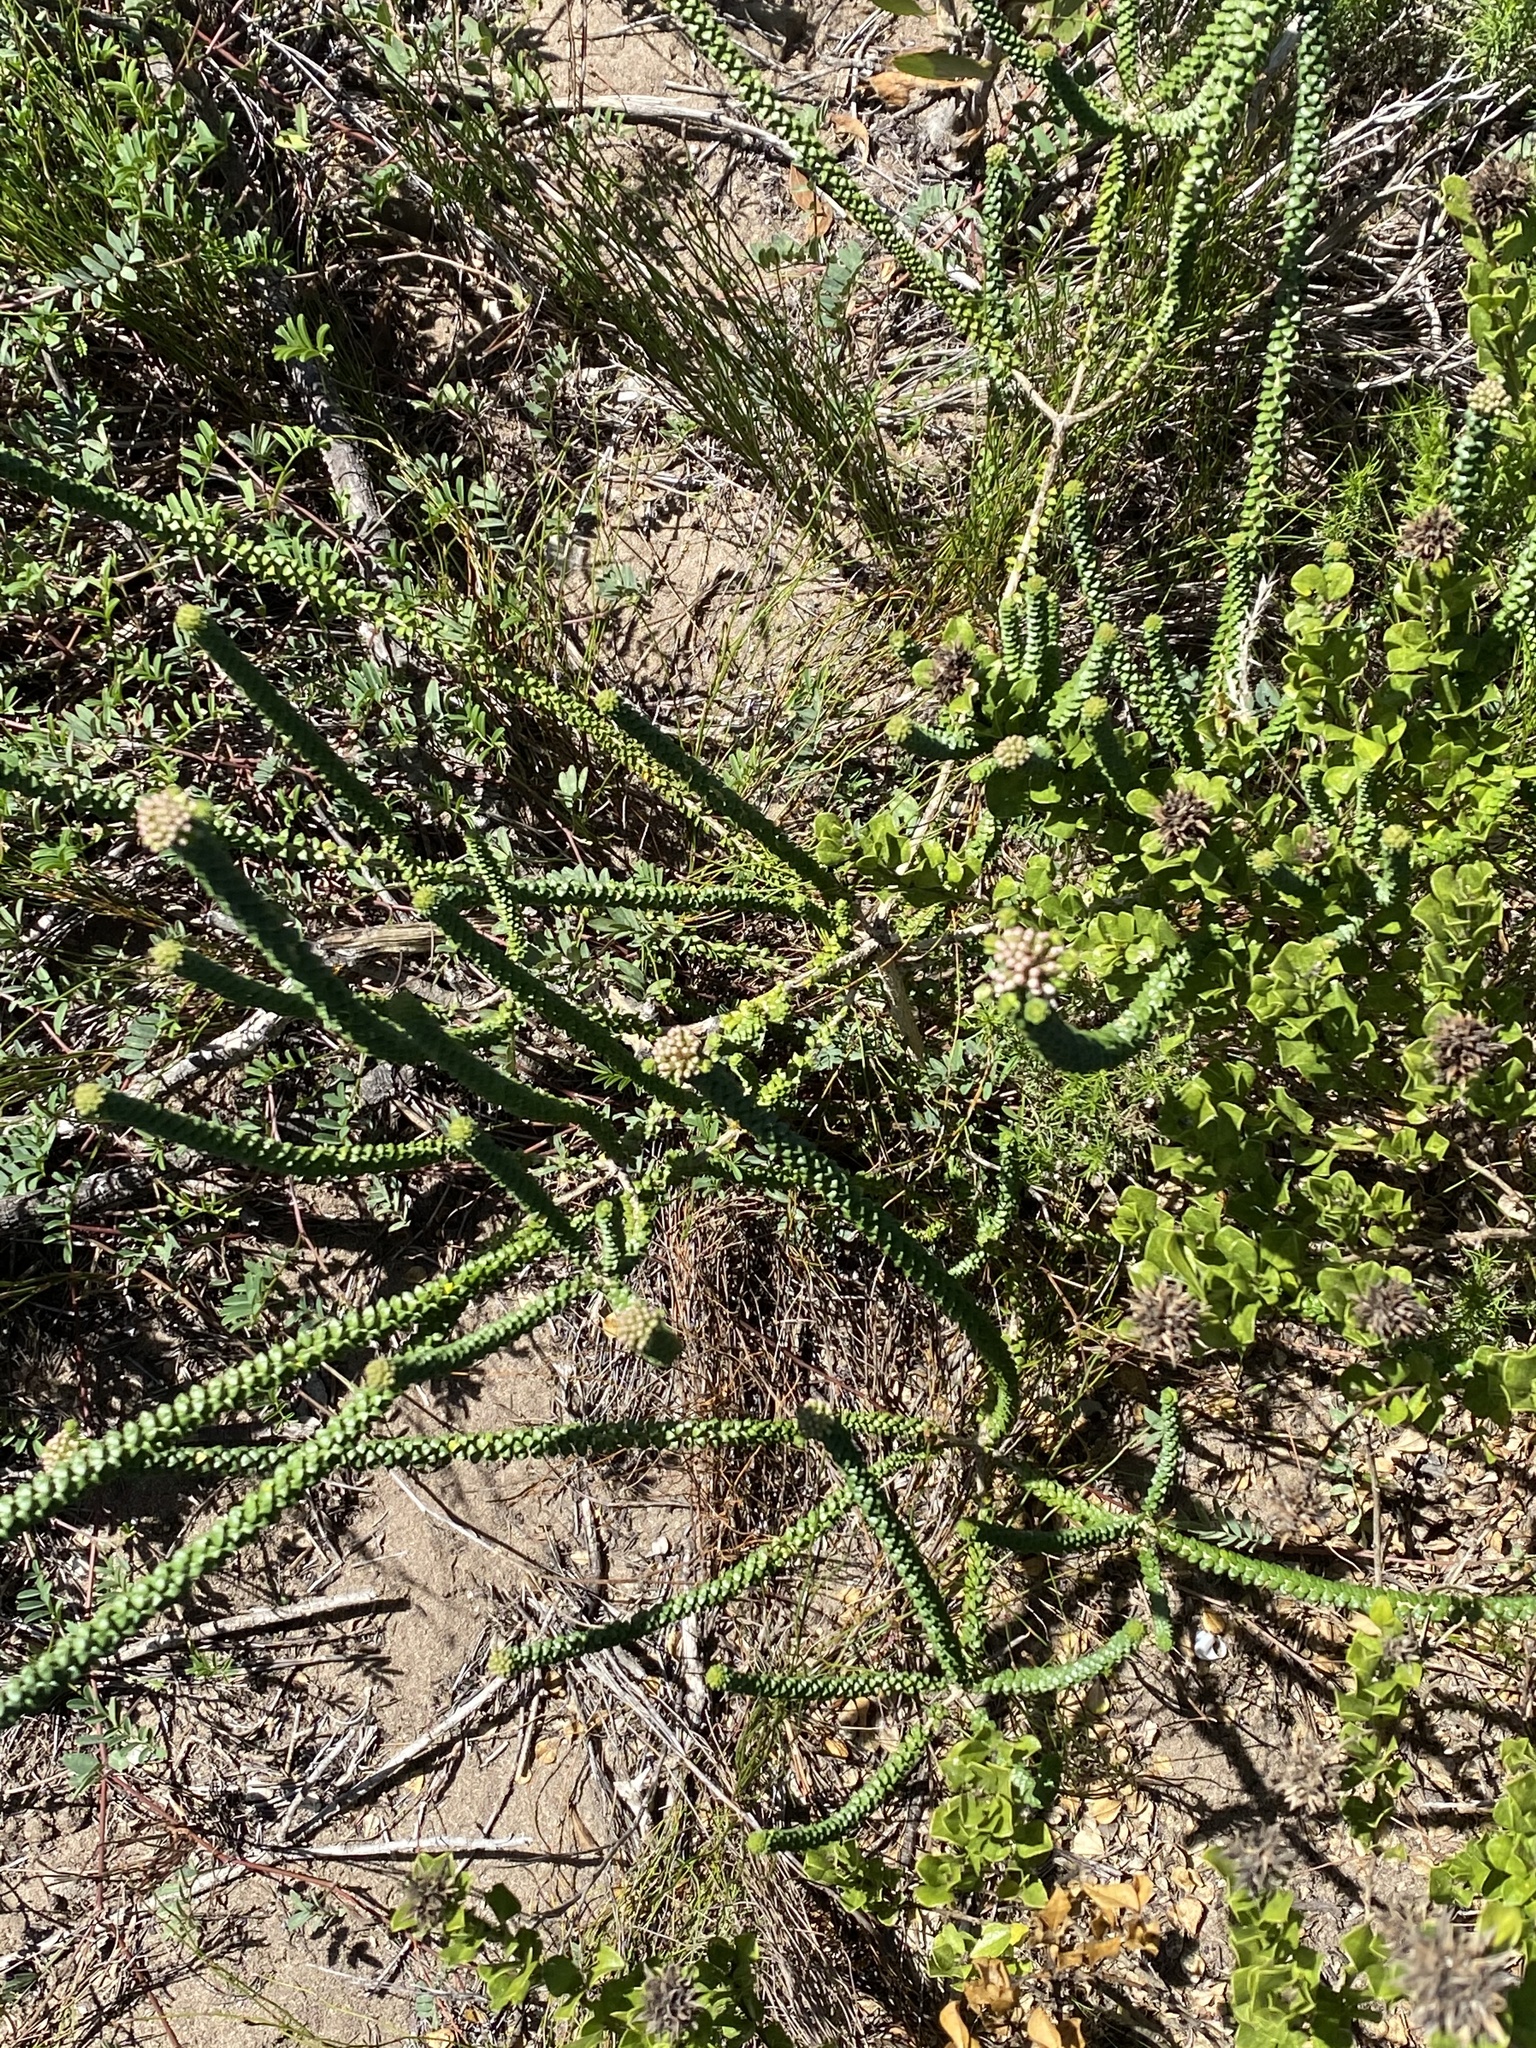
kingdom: Plantae
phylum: Tracheophyta
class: Magnoliopsida
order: Sapindales
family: Rutaceae
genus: Agathosma
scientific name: Agathosma muirii
